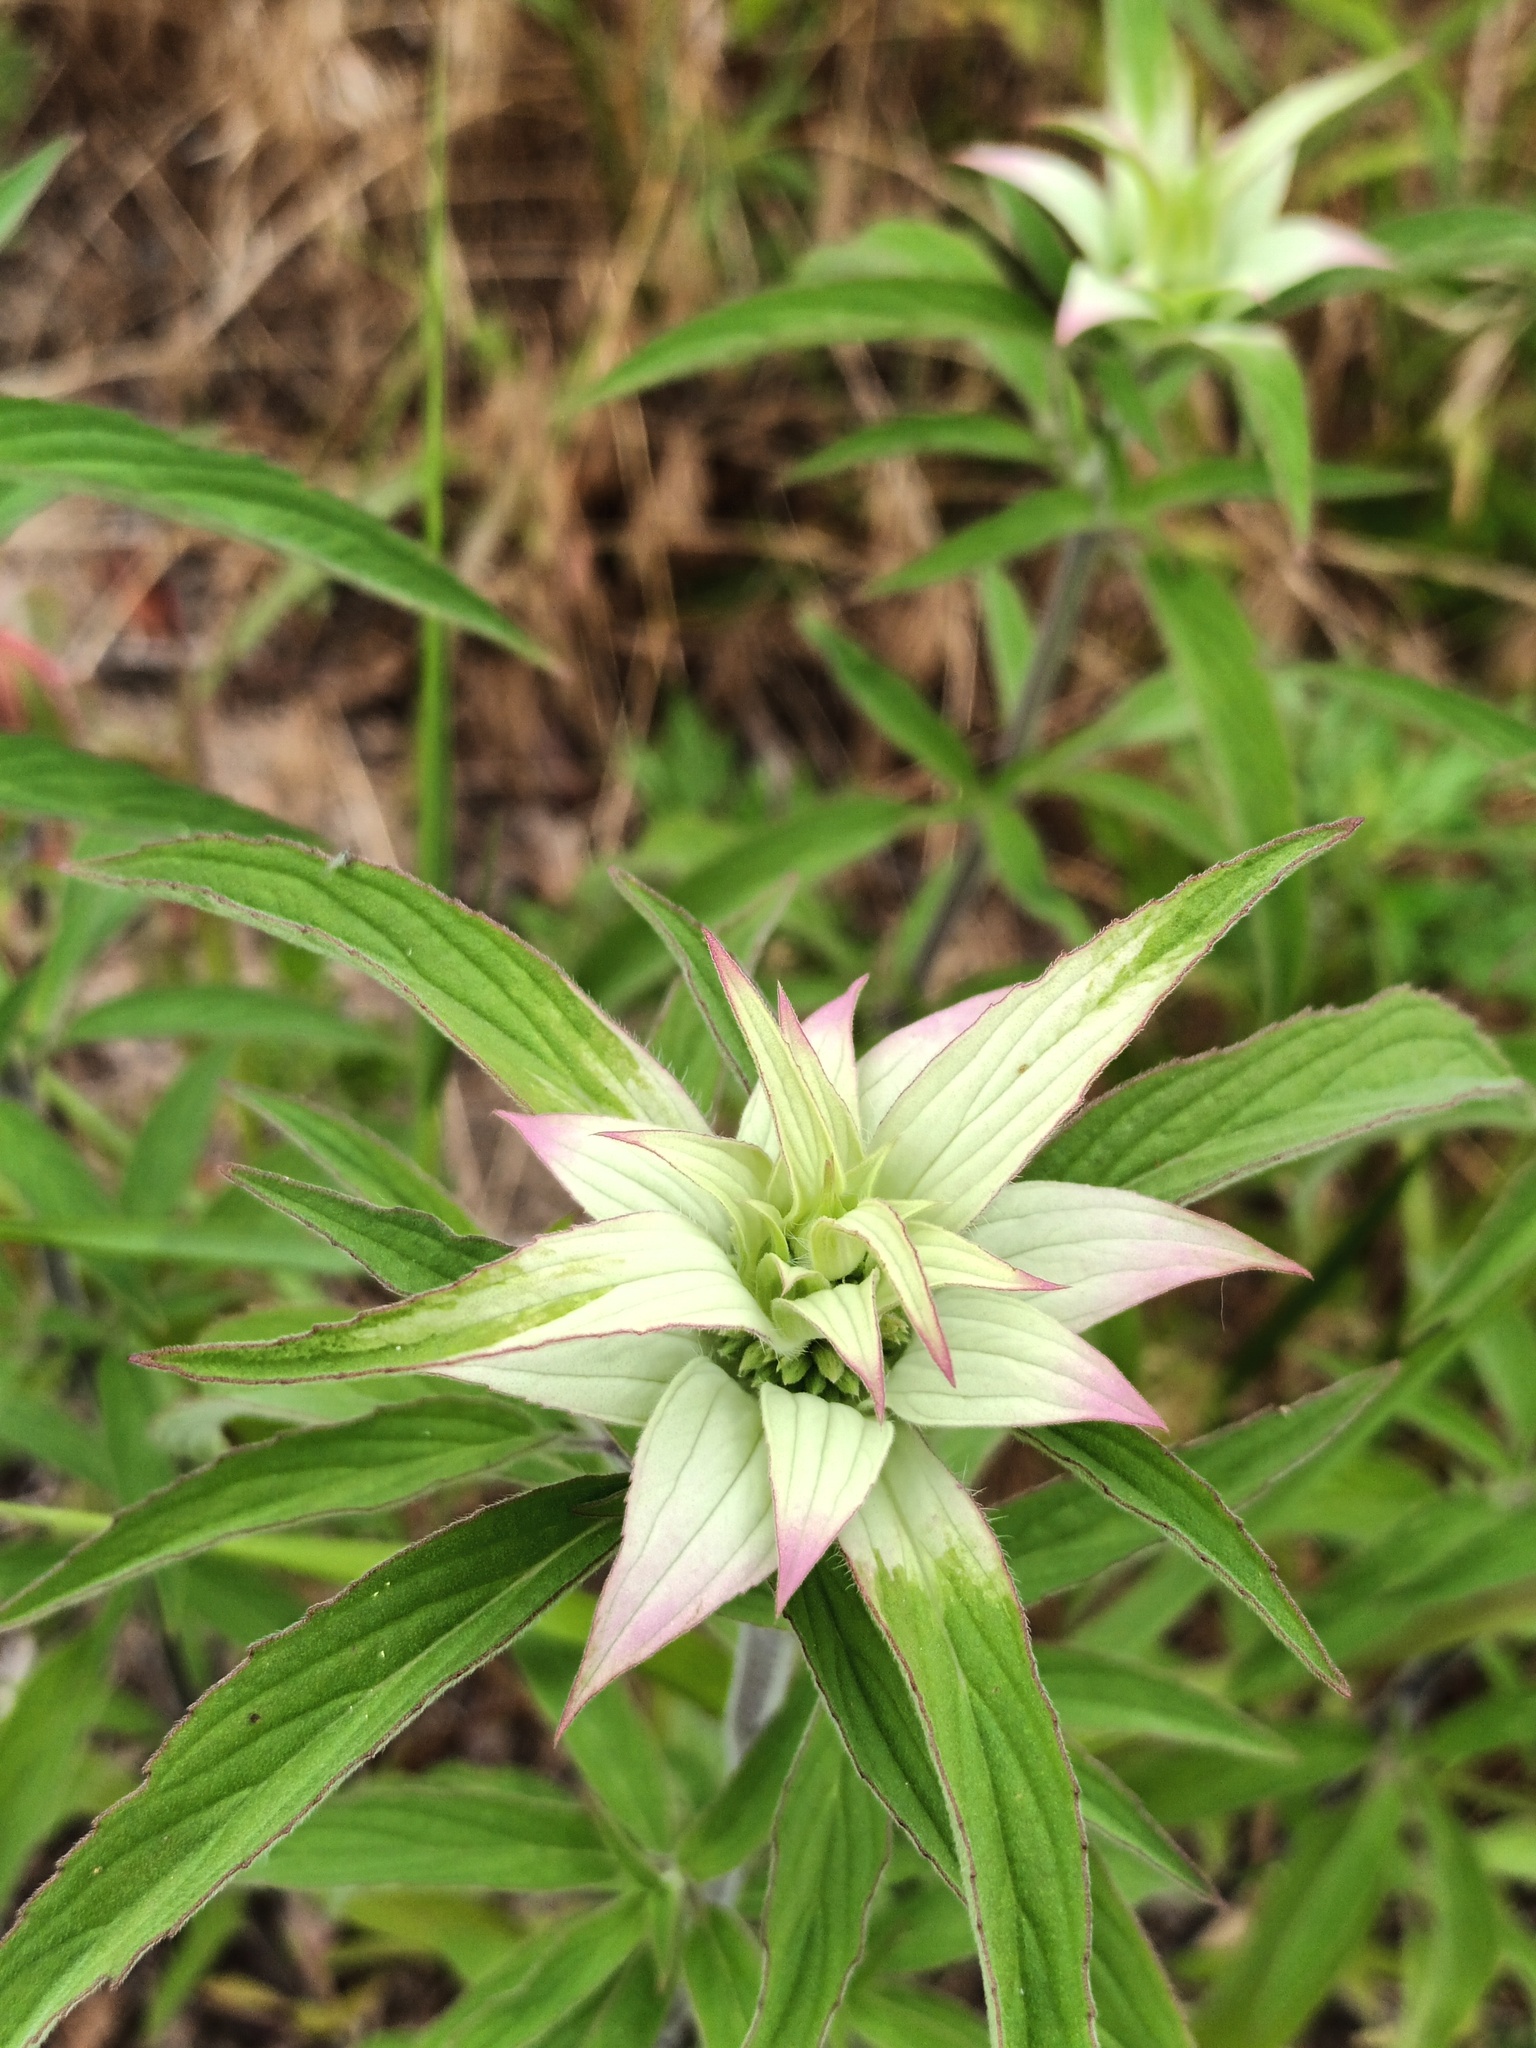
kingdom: Plantae
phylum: Tracheophyta
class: Magnoliopsida
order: Lamiales
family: Lamiaceae
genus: Monarda
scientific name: Monarda punctata
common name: Dotted monarda
